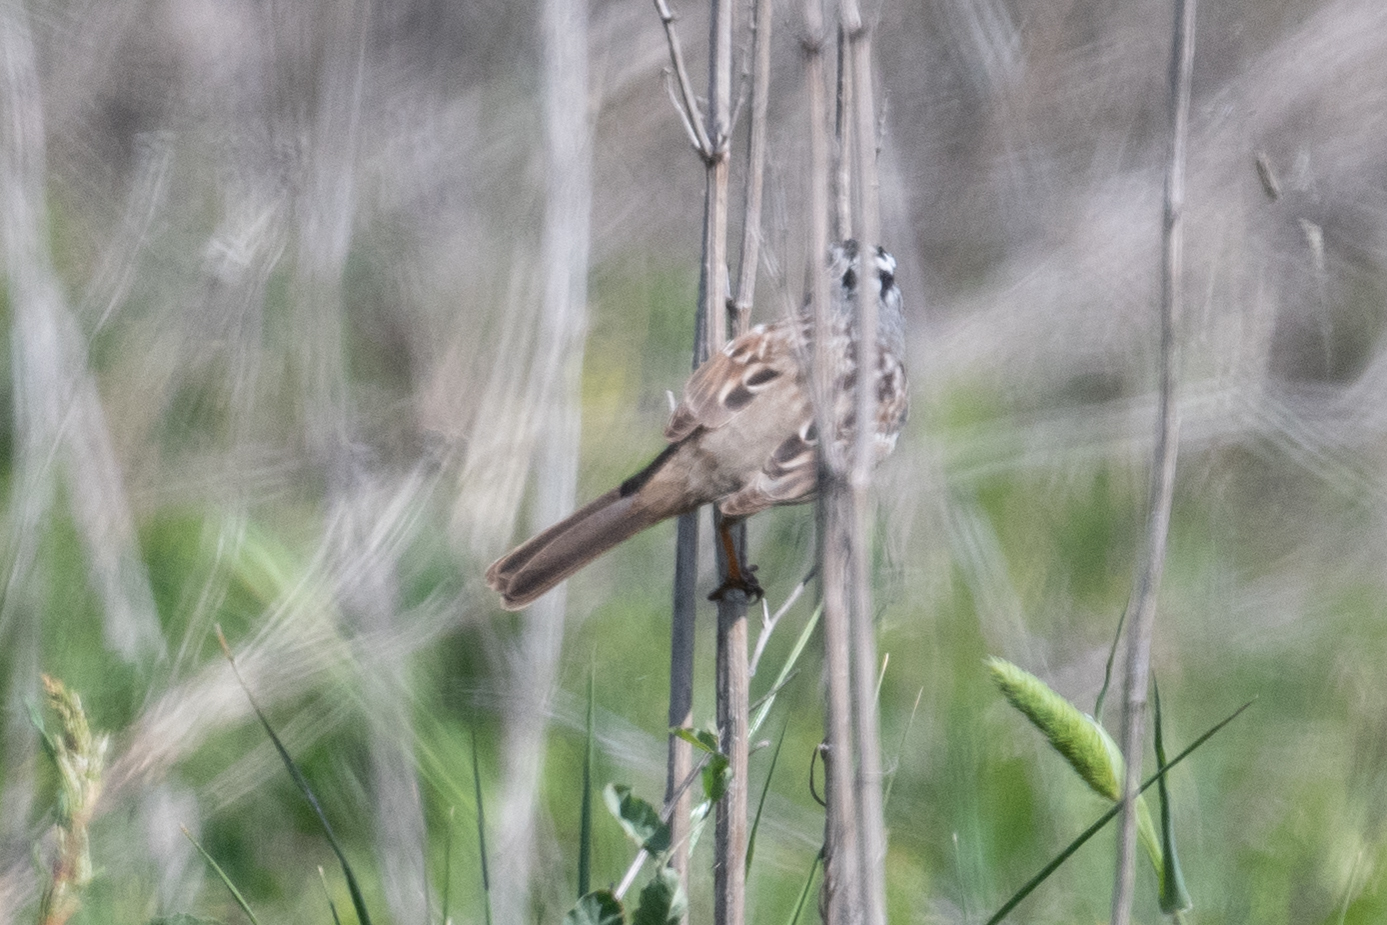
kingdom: Animalia
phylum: Chordata
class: Aves
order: Passeriformes
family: Passerellidae
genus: Zonotrichia
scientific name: Zonotrichia leucophrys
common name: White-crowned sparrow
